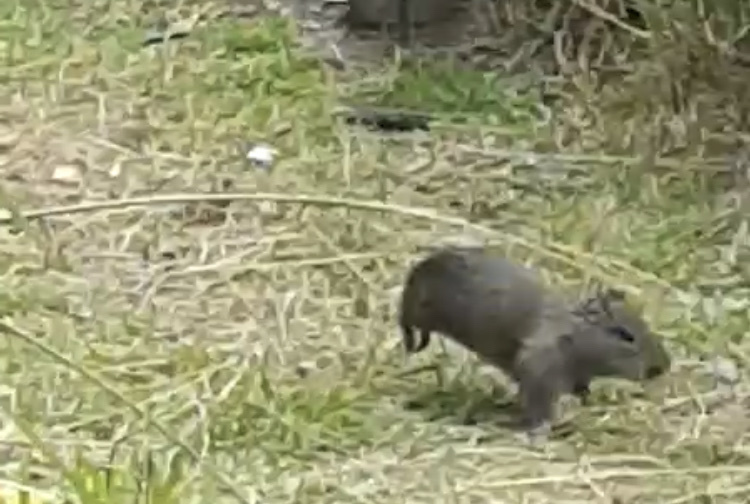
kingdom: Animalia
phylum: Chordata
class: Mammalia
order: Rodentia
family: Caviidae
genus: Cavia
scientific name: Cavia aperea
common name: Brazilian guinea pig
